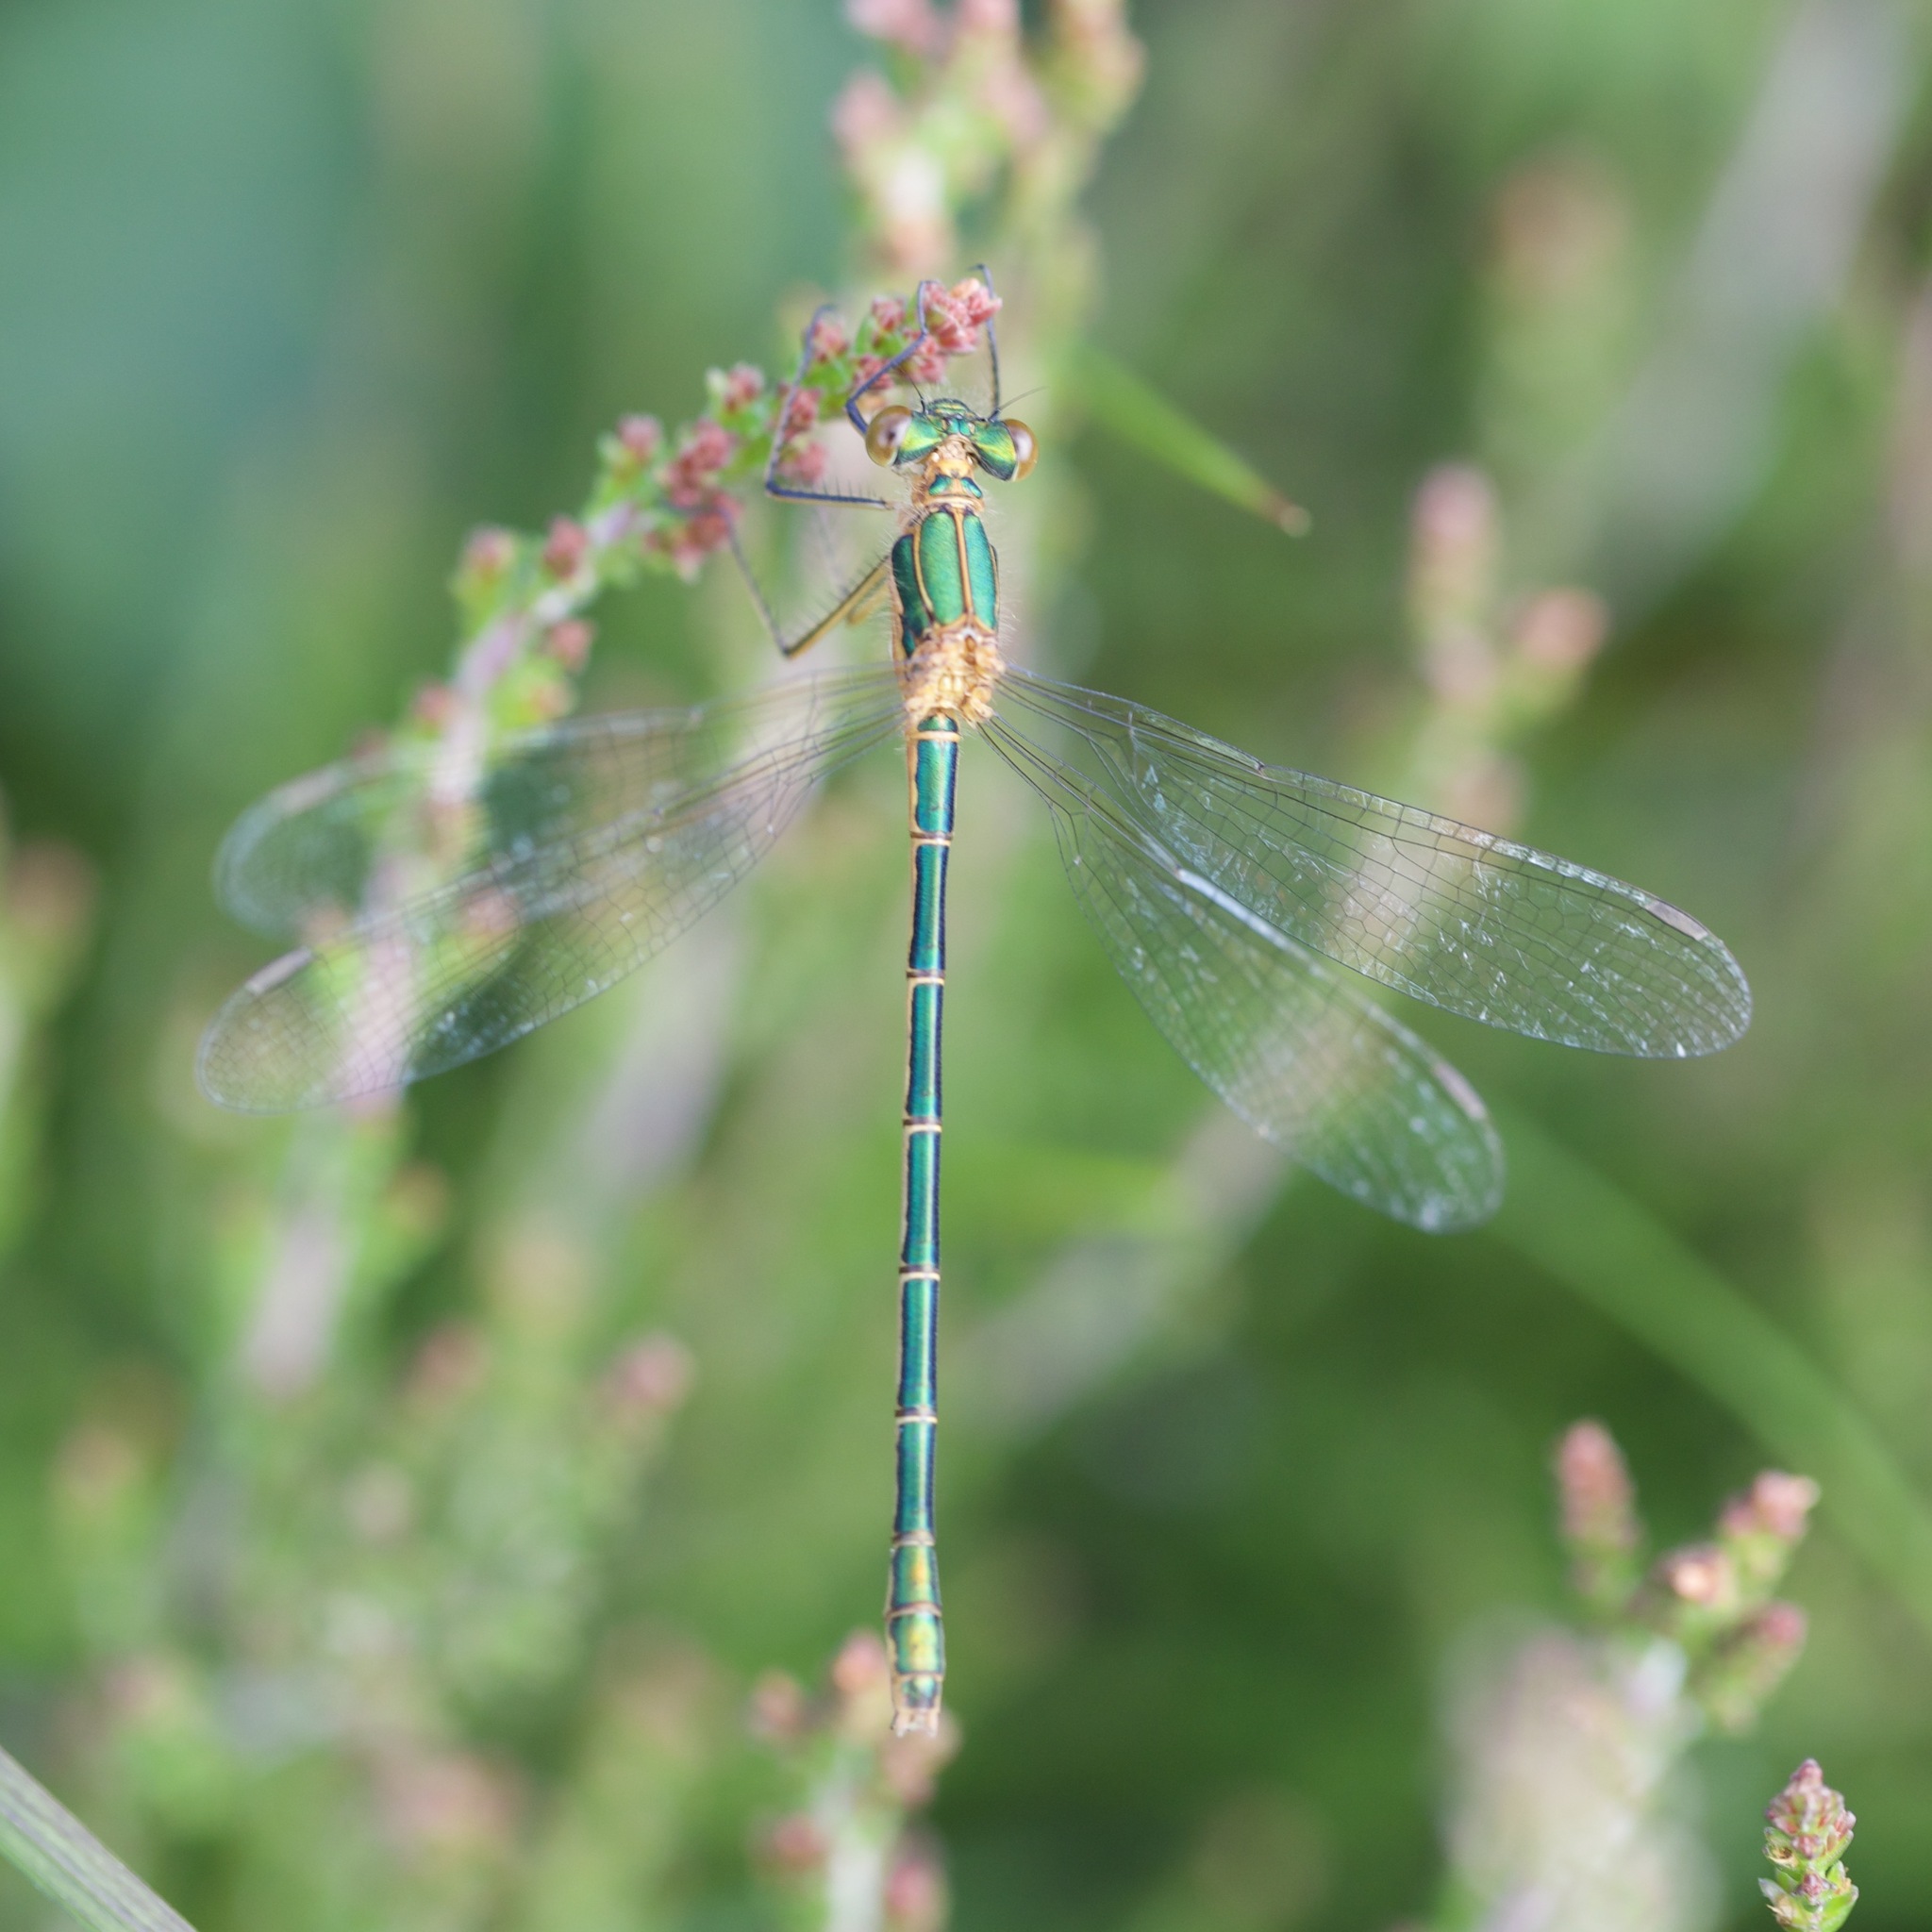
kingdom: Animalia
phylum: Arthropoda
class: Insecta
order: Odonata
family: Lestidae
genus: Lestes
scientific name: Lestes sponsa
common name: Common spreadwing
